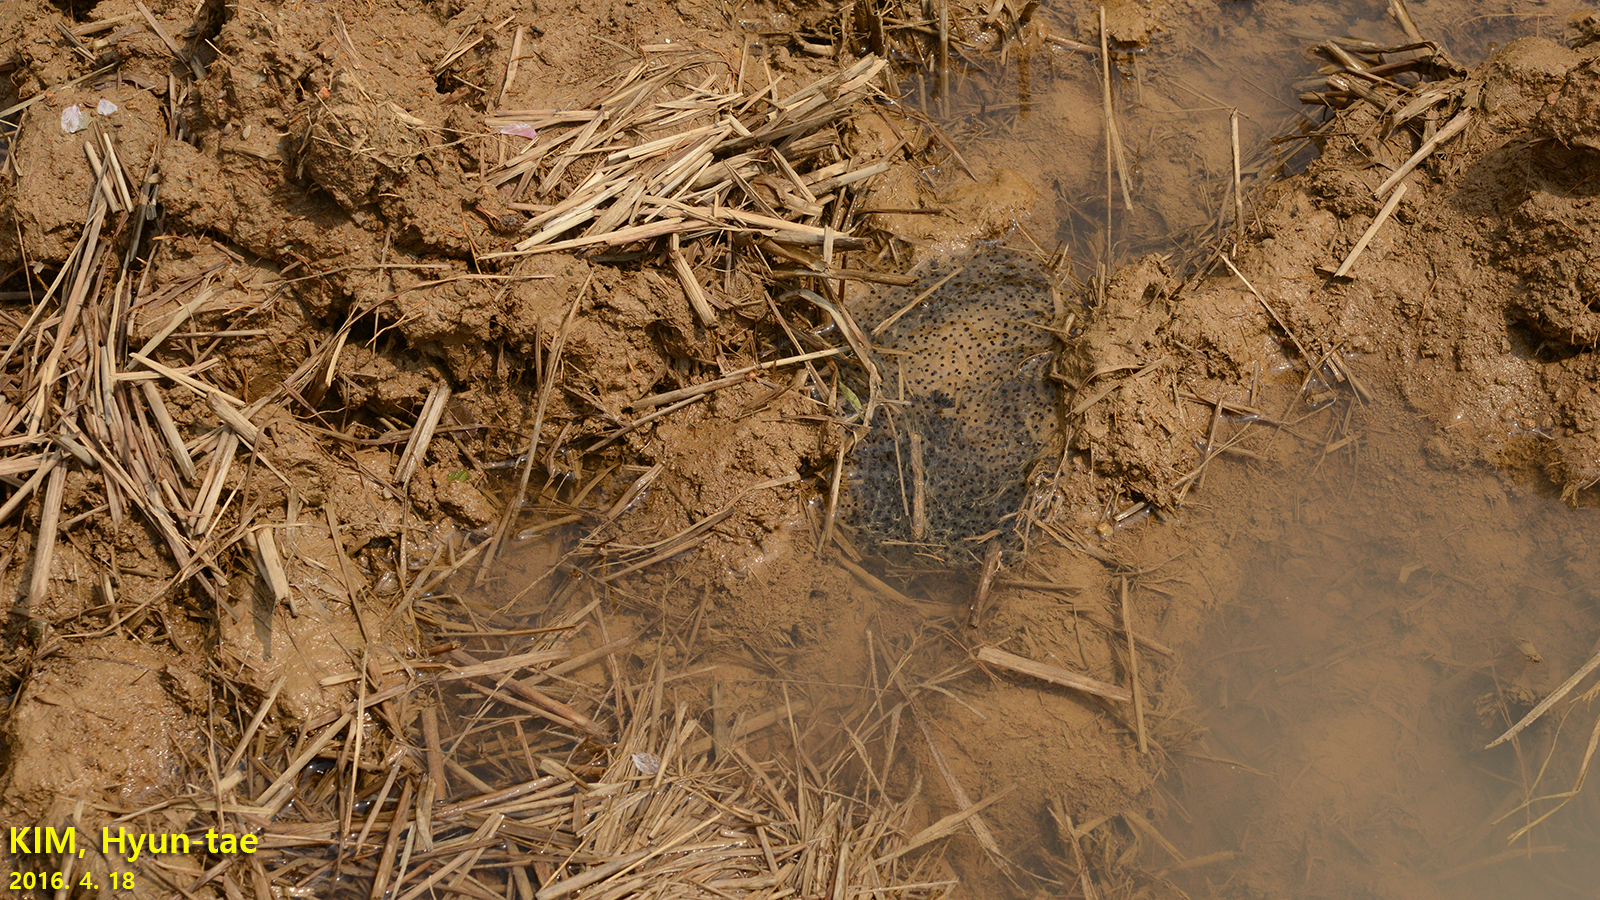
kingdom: Animalia
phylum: Chordata
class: Amphibia
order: Anura
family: Ranidae
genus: Pelophylax
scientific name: Pelophylax nigromaculatus
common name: Black-spotted pond frog
